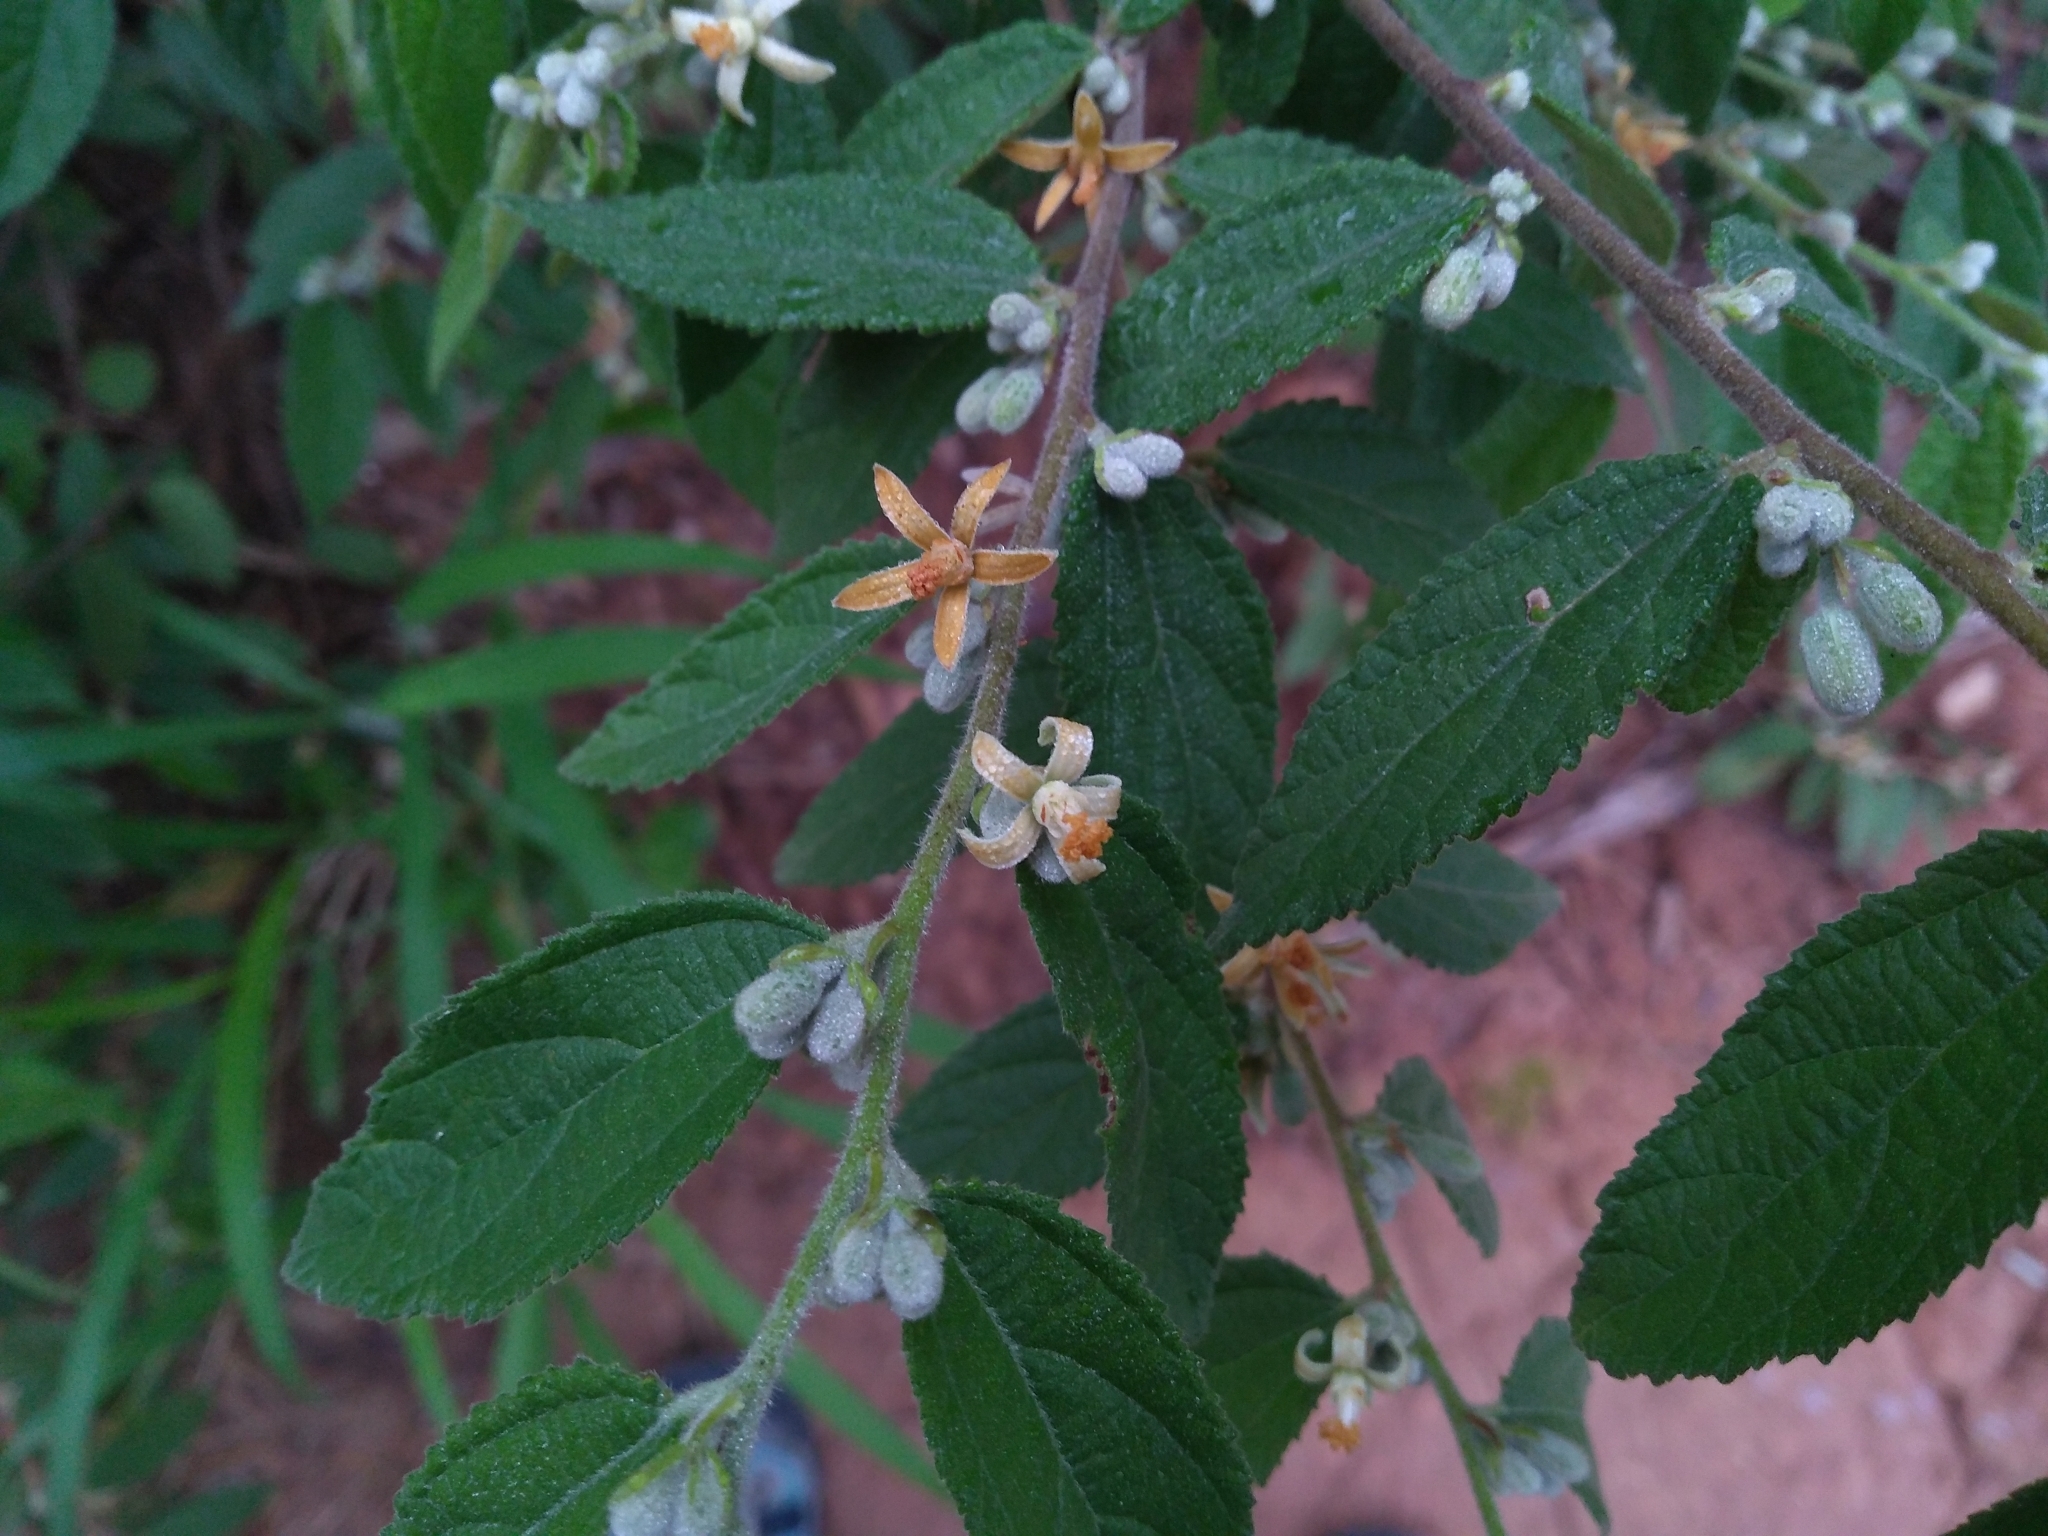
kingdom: Plantae
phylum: Tracheophyta
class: Magnoliopsida
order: Malvales
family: Malvaceae
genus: Grewia
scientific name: Grewia hirsuta
